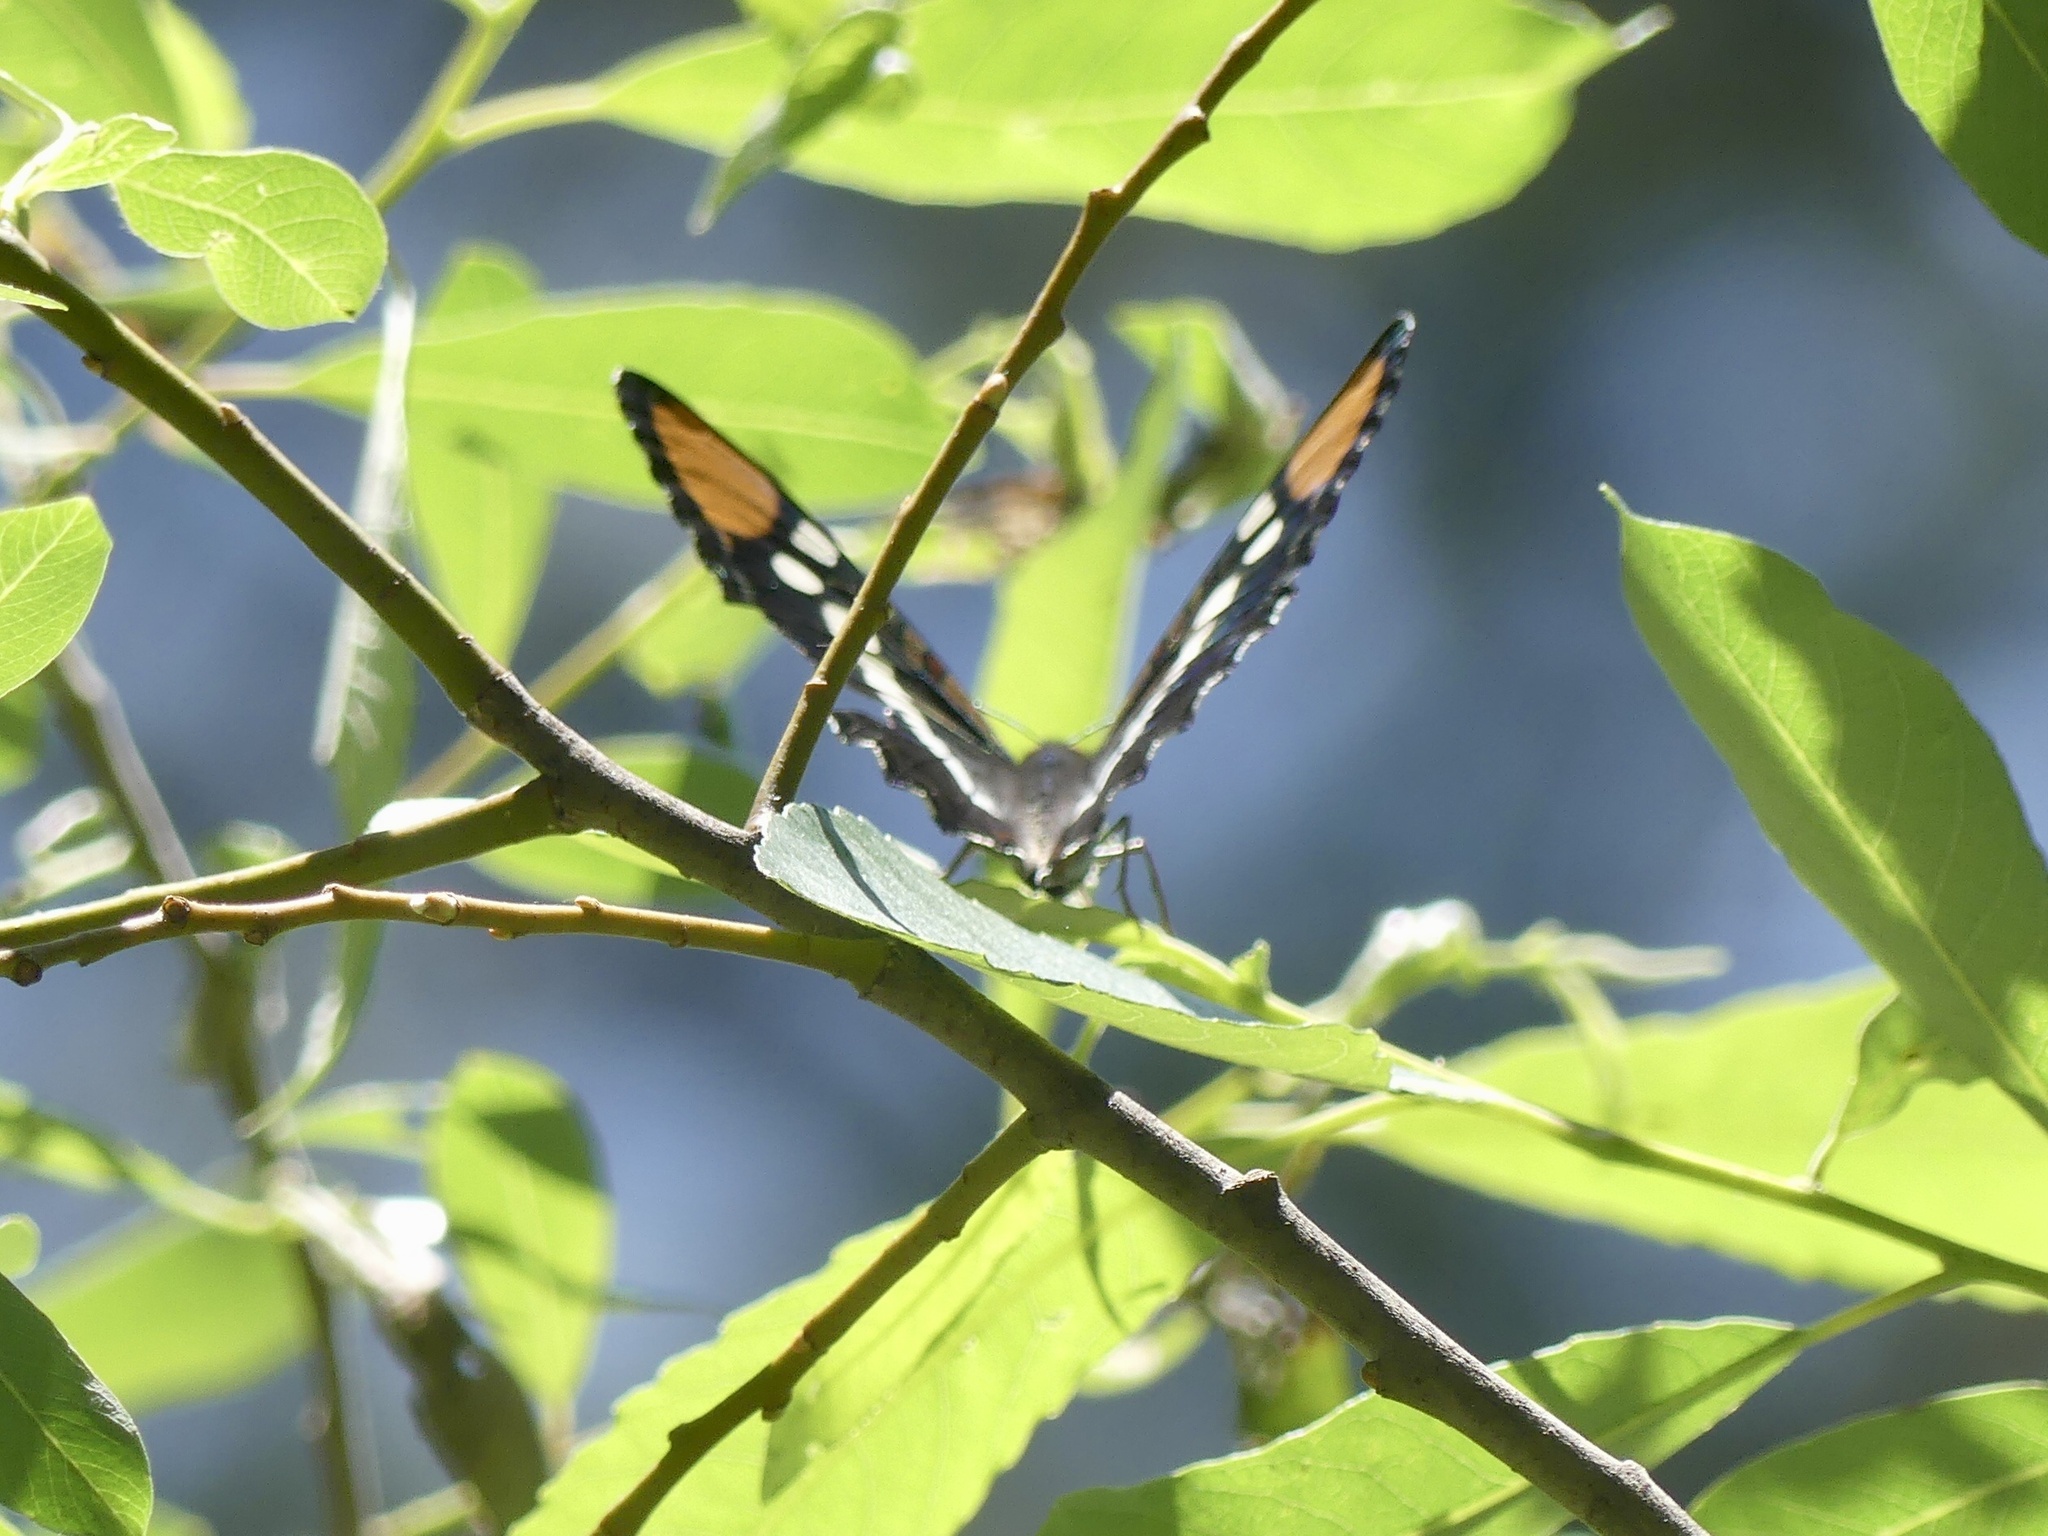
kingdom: Animalia
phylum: Arthropoda
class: Insecta
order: Lepidoptera
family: Nymphalidae
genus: Limenitis
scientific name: Limenitis bredowii
